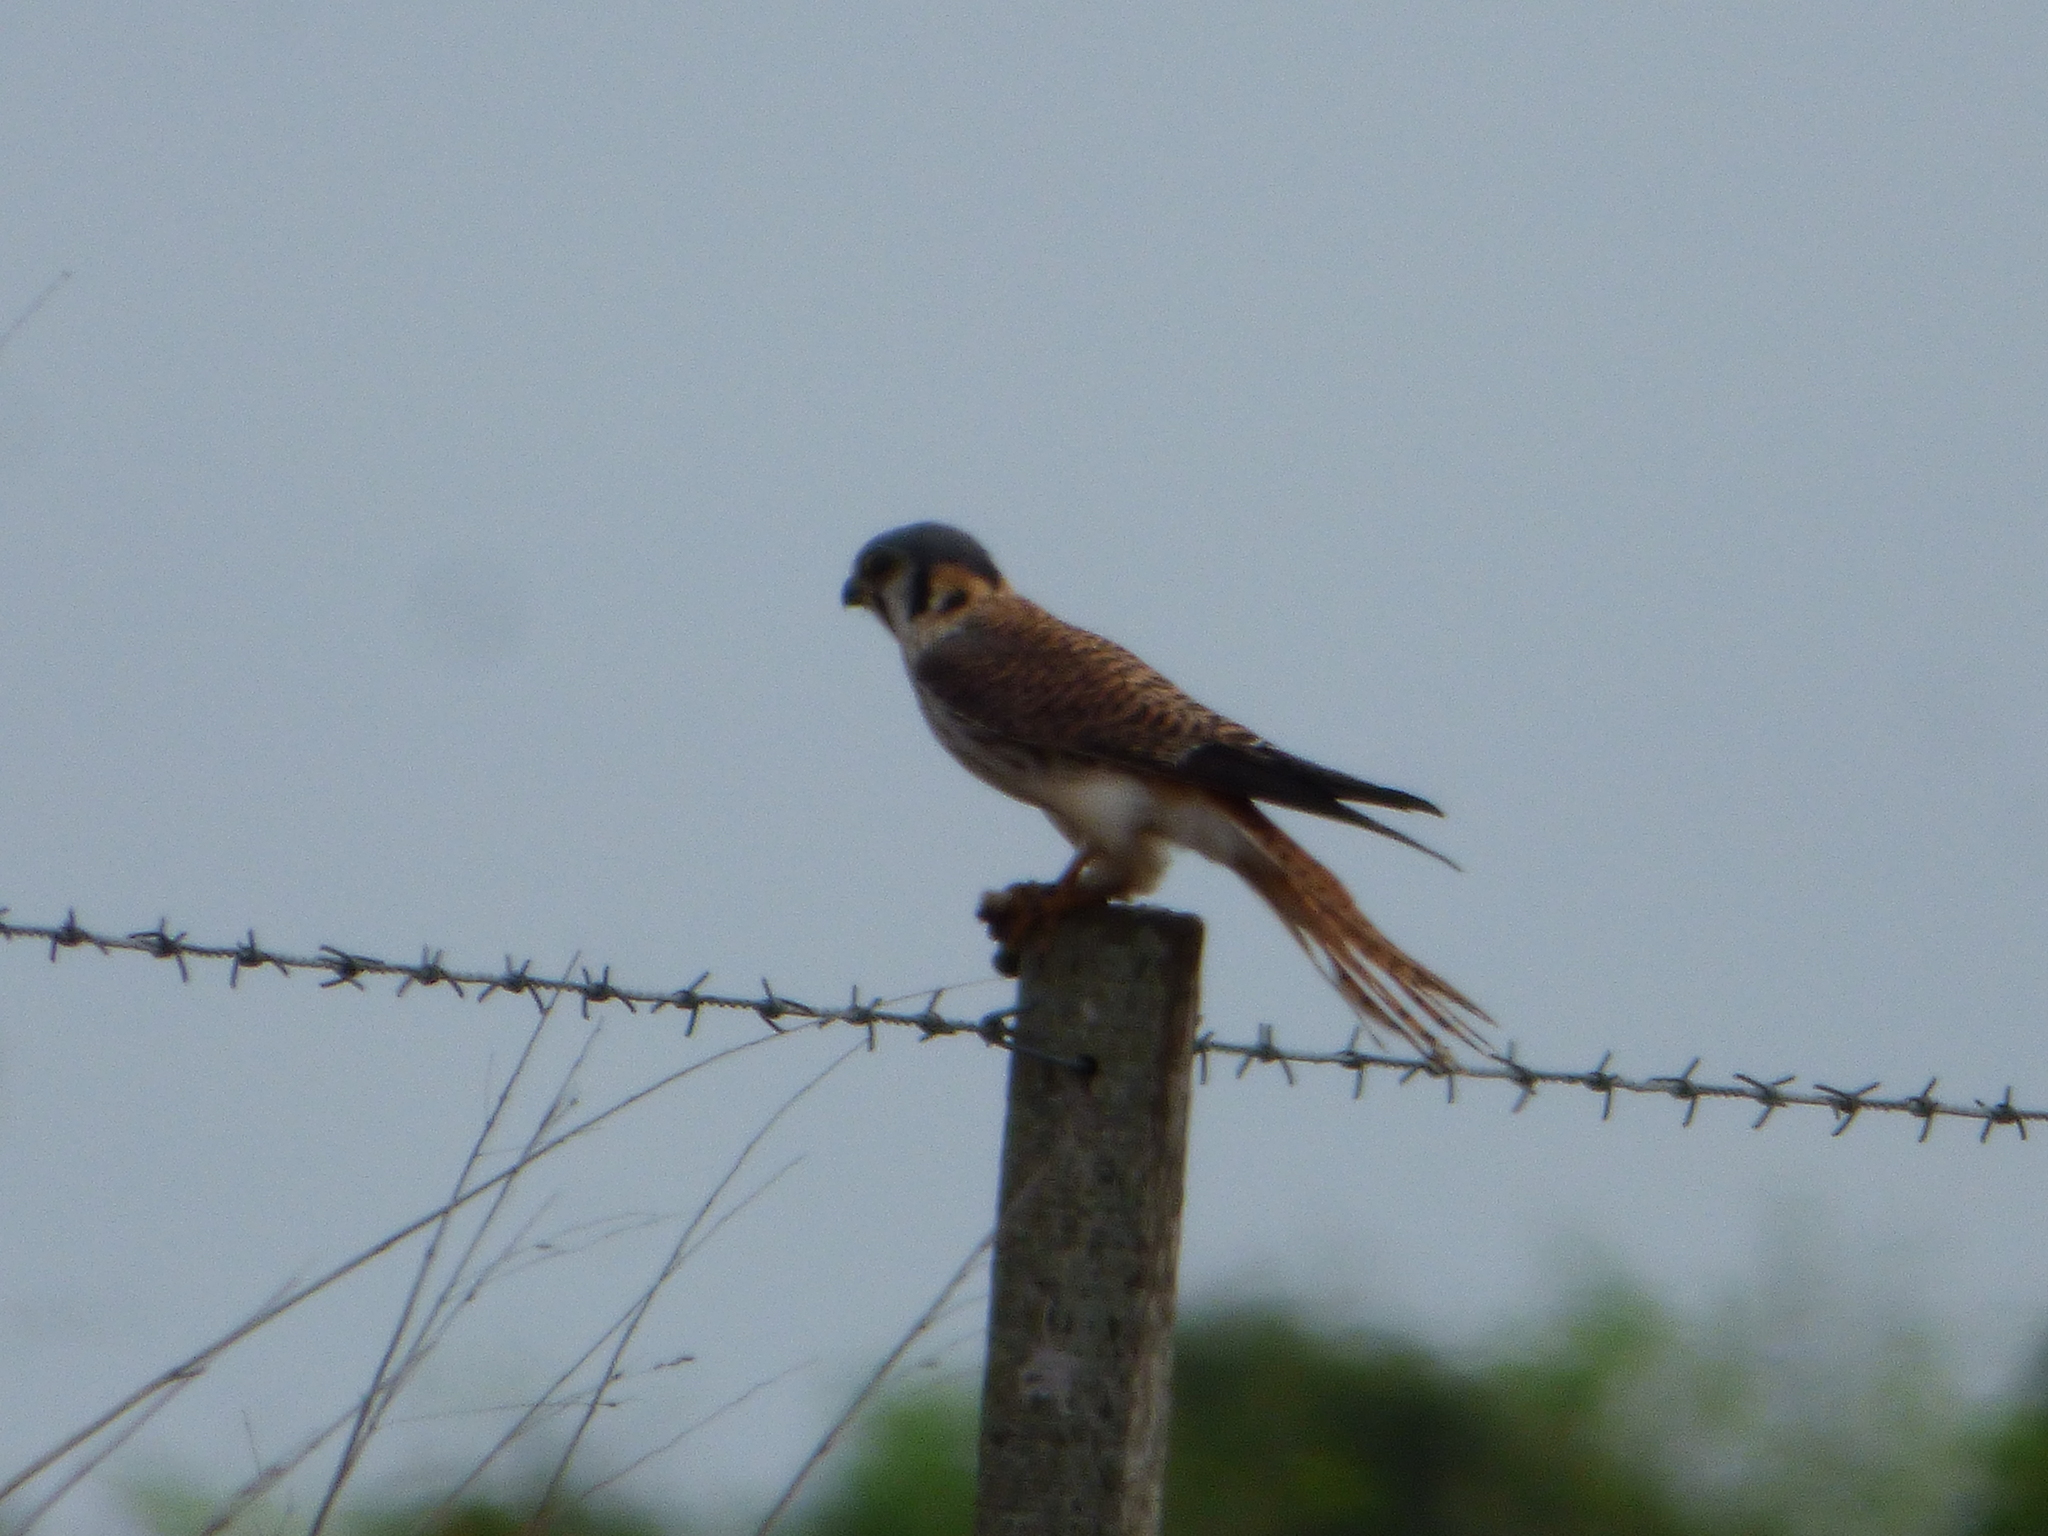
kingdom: Animalia
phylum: Chordata
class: Aves
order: Falconiformes
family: Falconidae
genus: Falco
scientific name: Falco sparverius
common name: American kestrel
